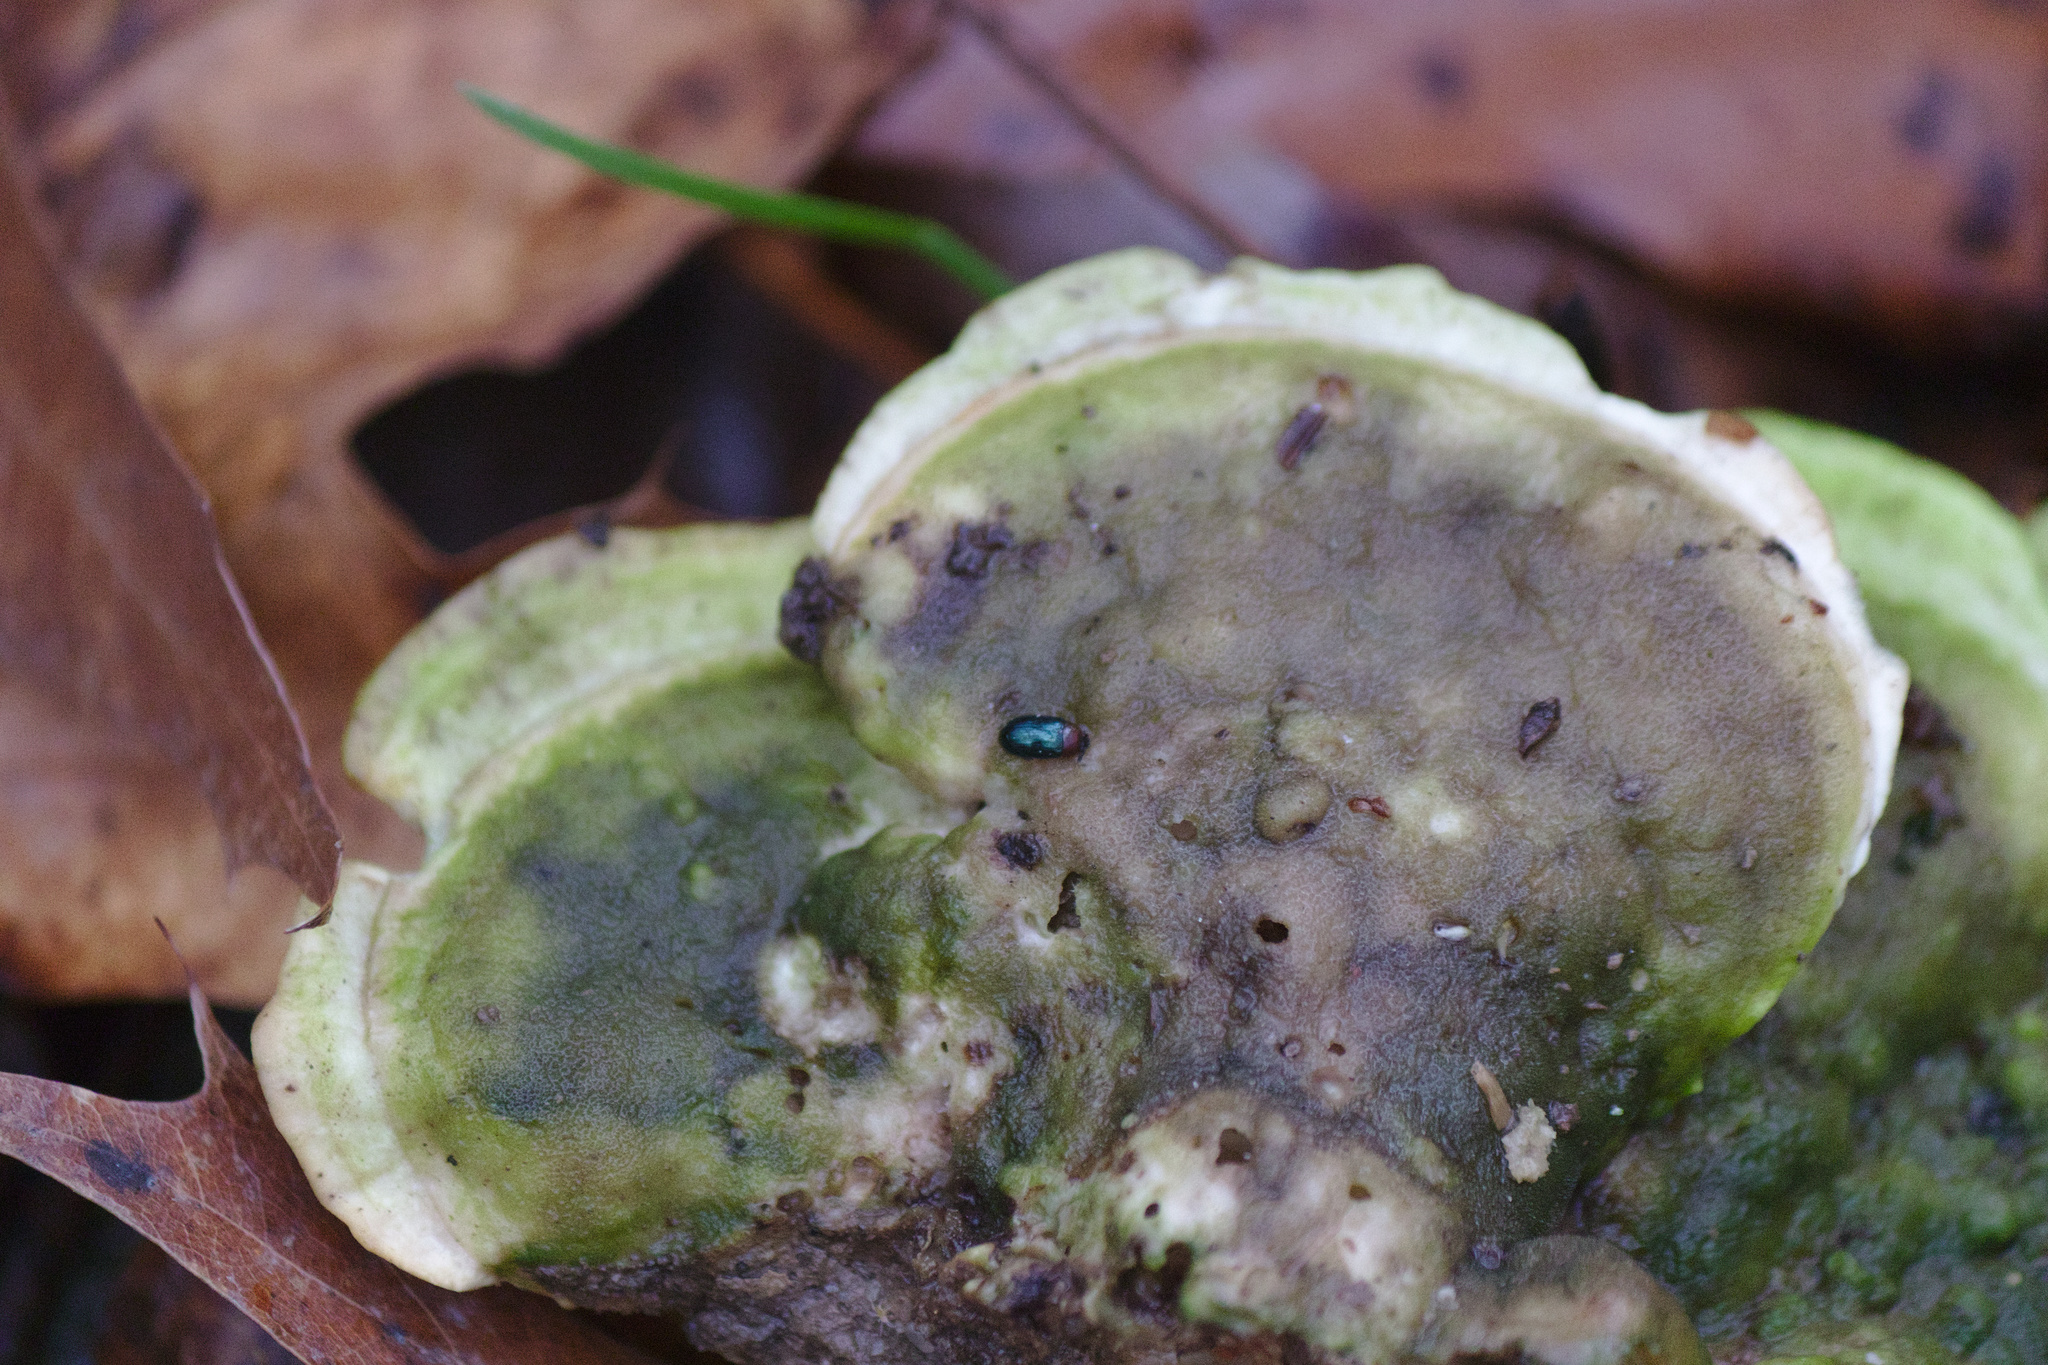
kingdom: Animalia
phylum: Arthropoda
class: Insecta
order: Coleoptera
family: Tenebrionidae
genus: Neomida
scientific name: Neomida bicornis
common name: Two-horned darkling beetle
